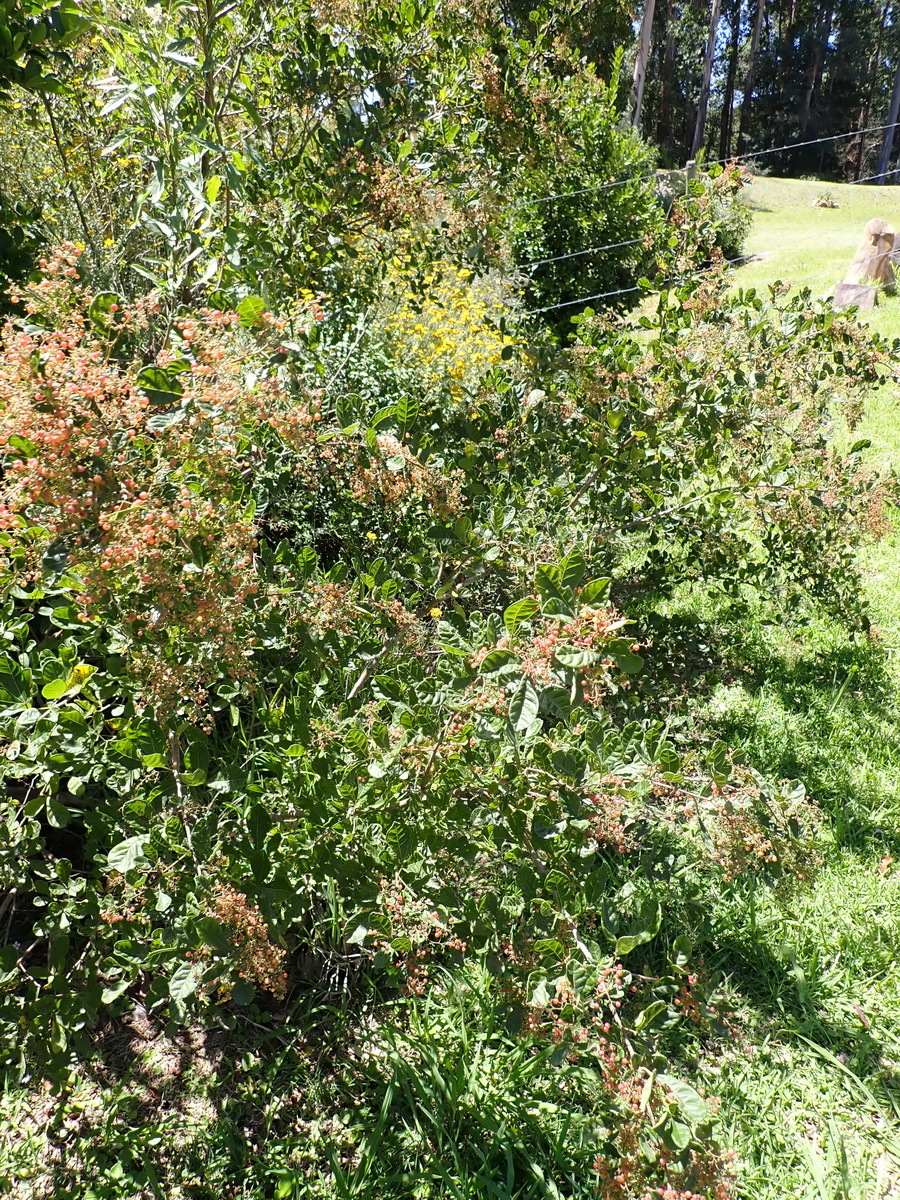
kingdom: Plantae
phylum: Tracheophyta
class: Magnoliopsida
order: Sapindales
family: Anacardiaceae
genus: Searsia
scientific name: Searsia pyroides
